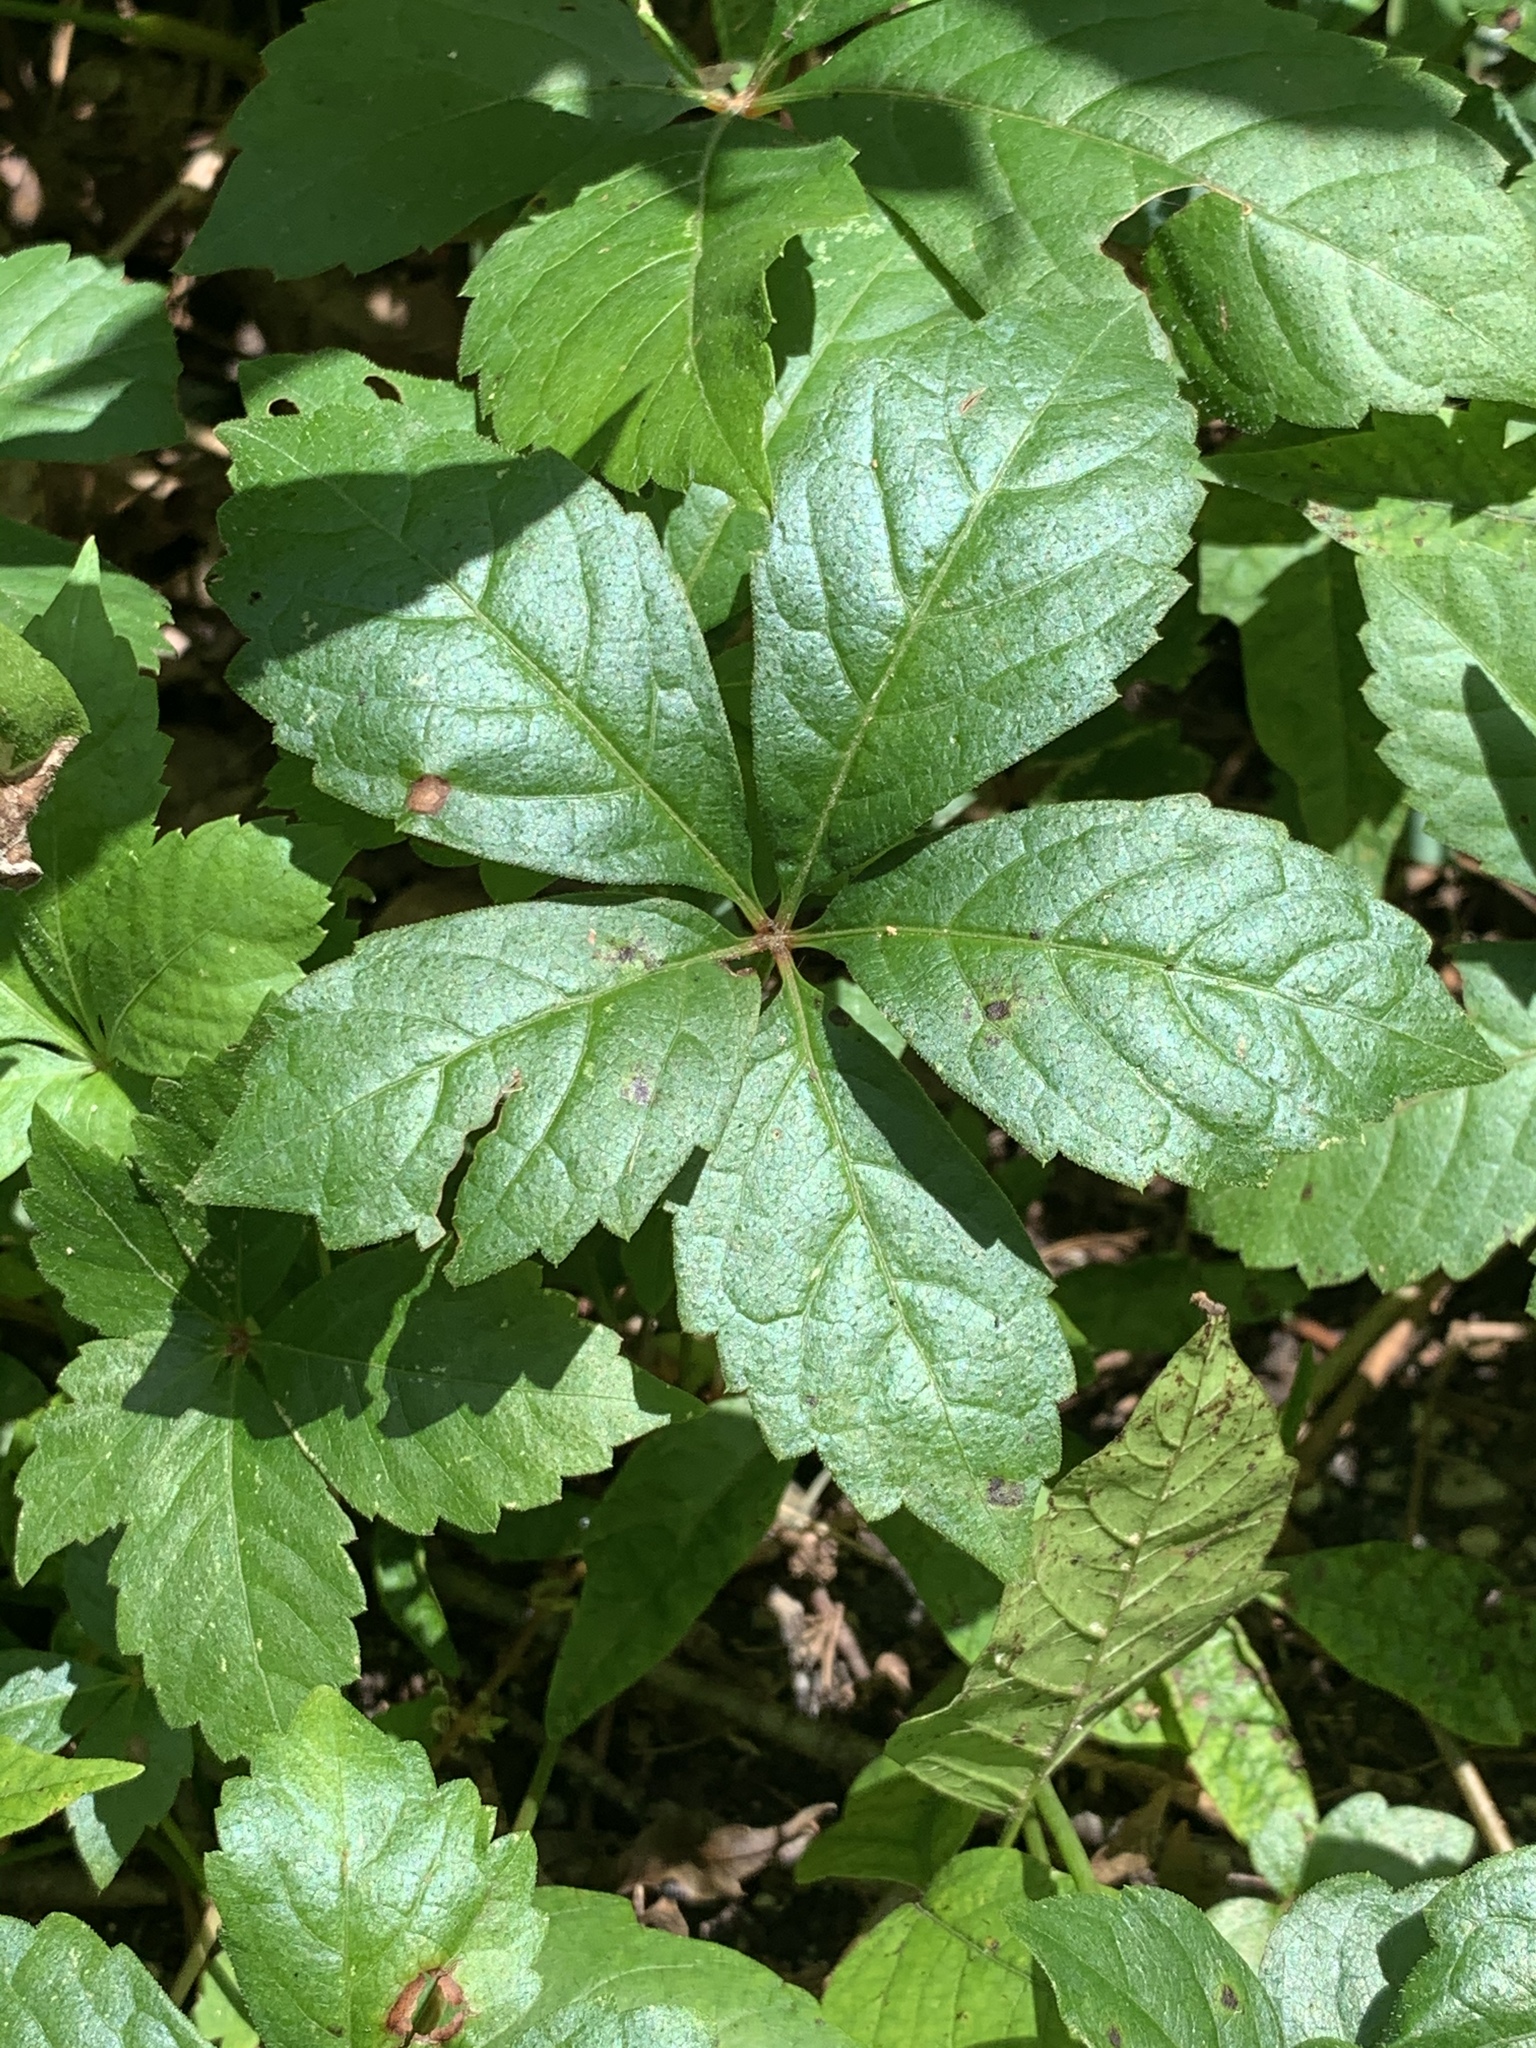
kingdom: Plantae
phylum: Tracheophyta
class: Magnoliopsida
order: Vitales
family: Vitaceae
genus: Parthenocissus
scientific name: Parthenocissus quinquefolia
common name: Virginia-creeper
